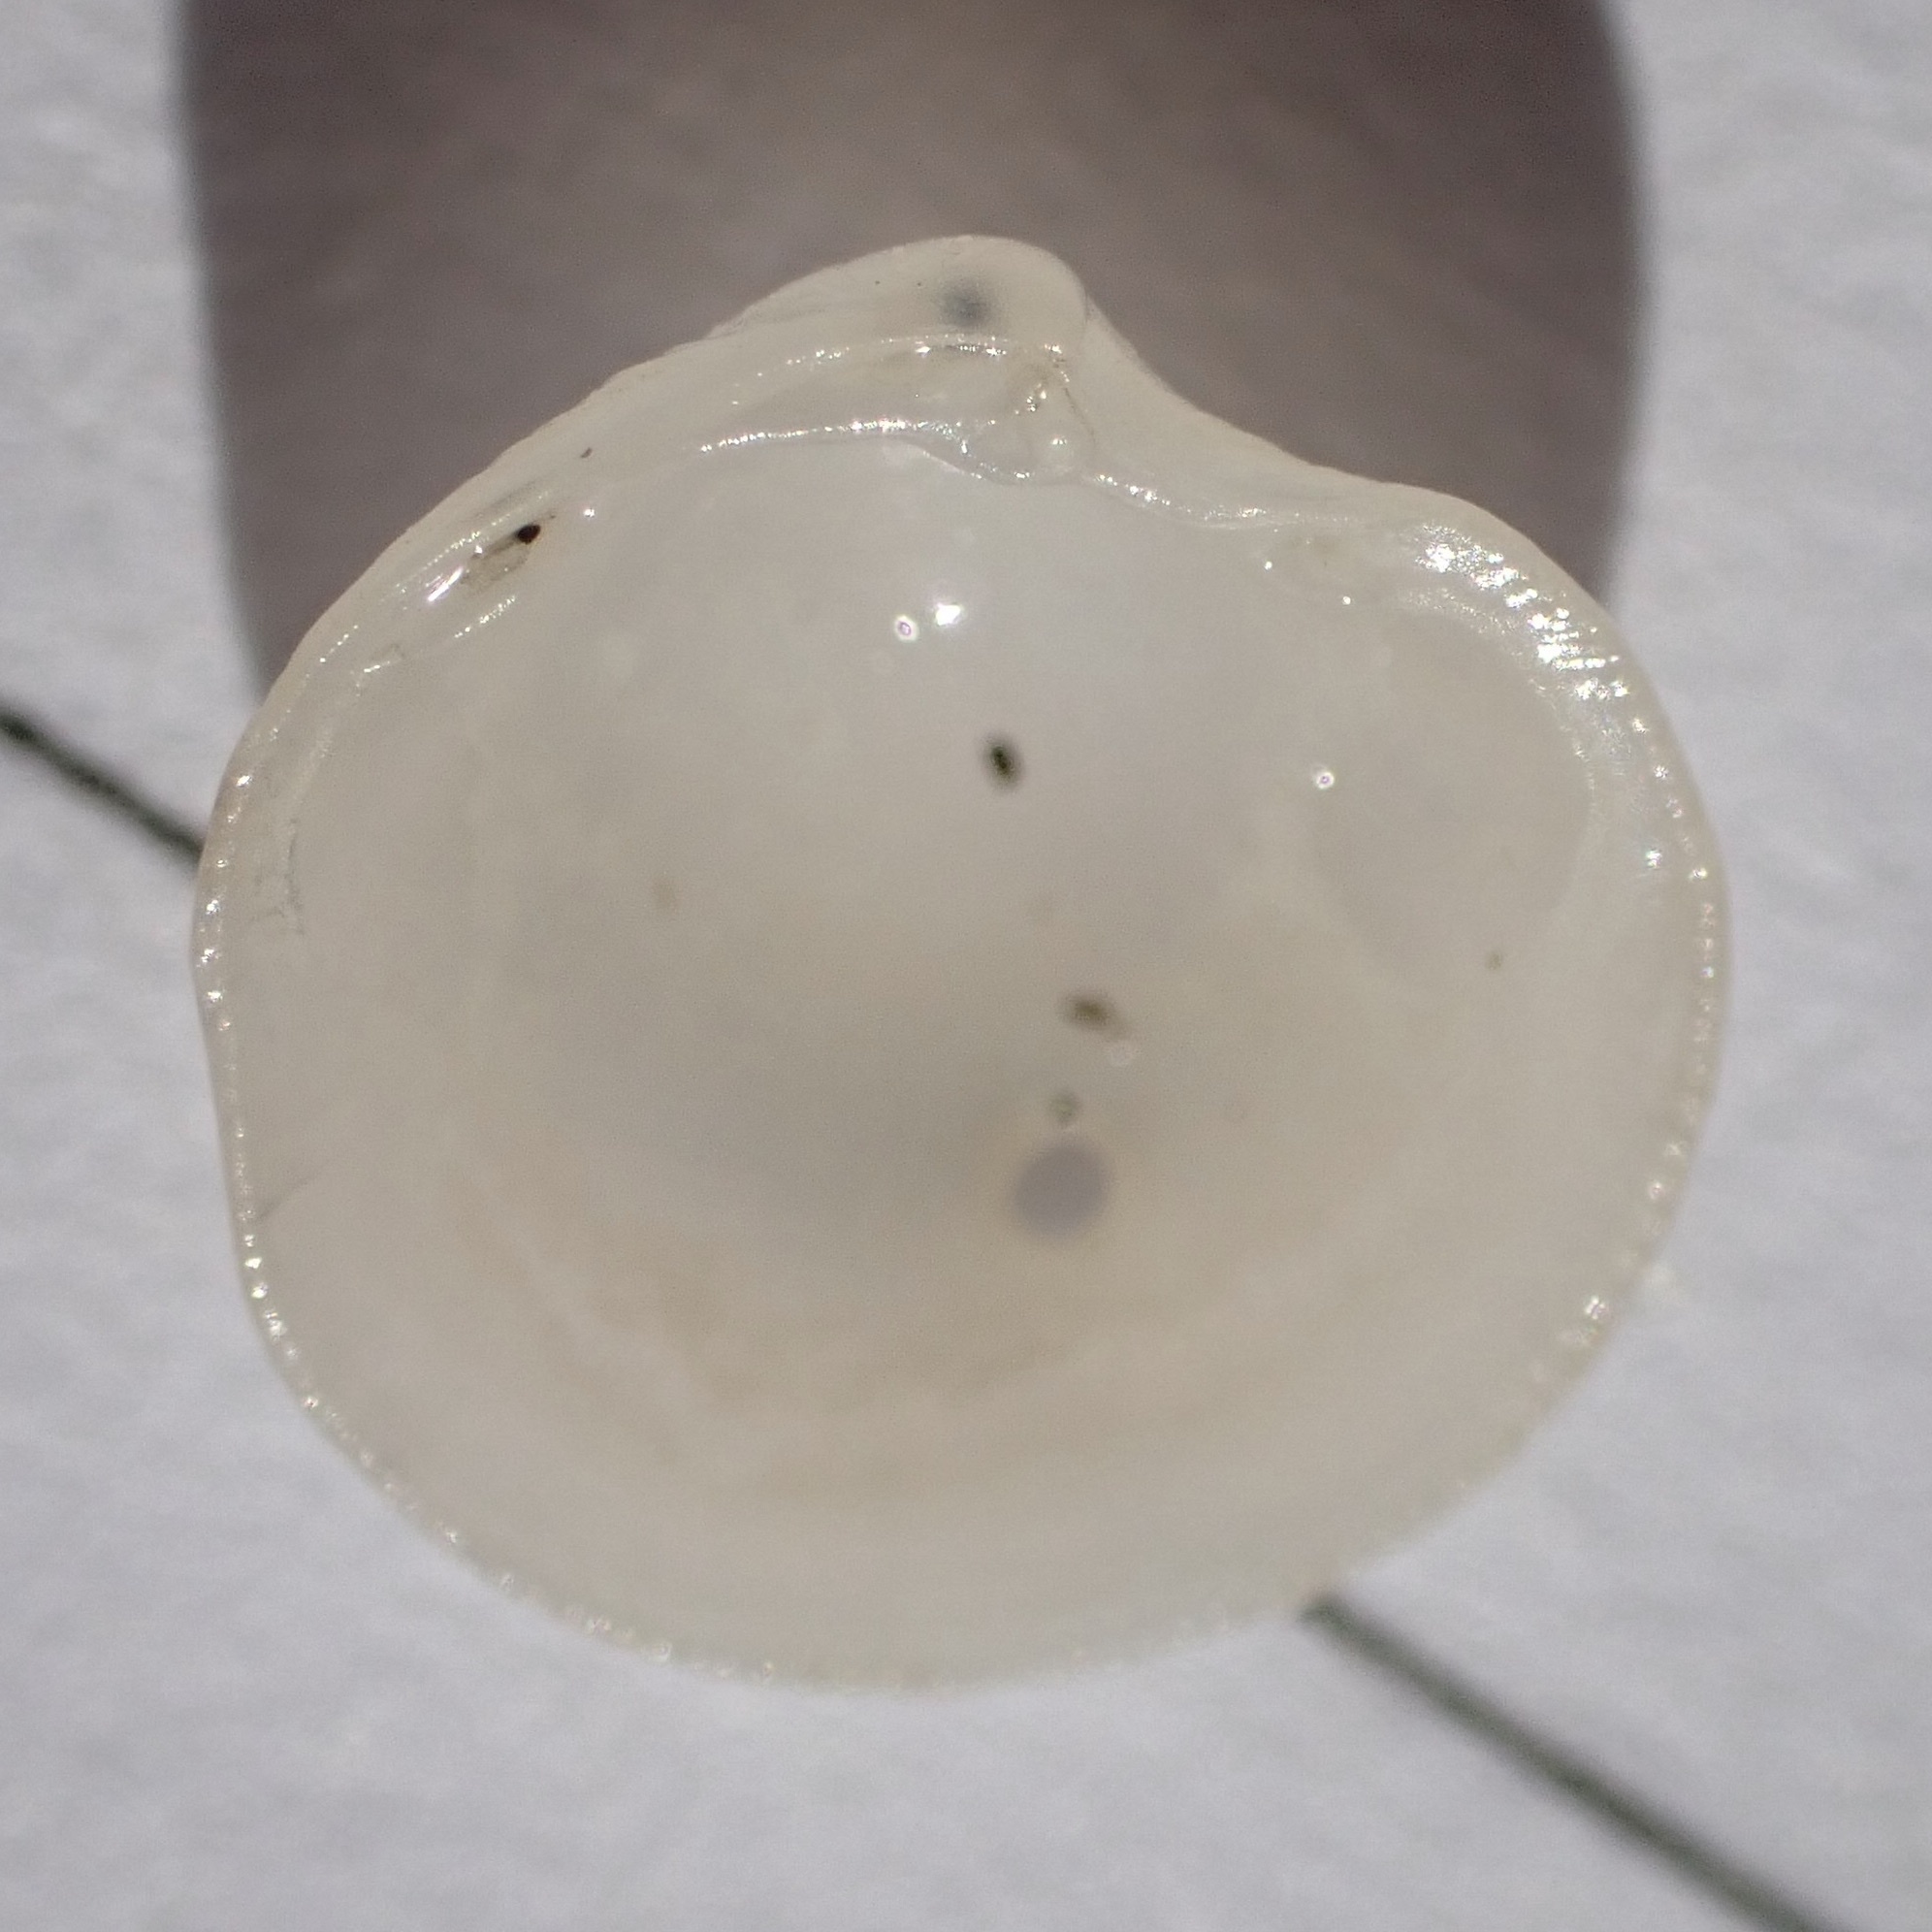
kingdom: Animalia
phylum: Mollusca
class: Bivalvia
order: Lucinida
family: Lucinidae
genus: Parvilucina
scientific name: Parvilucina crenella
